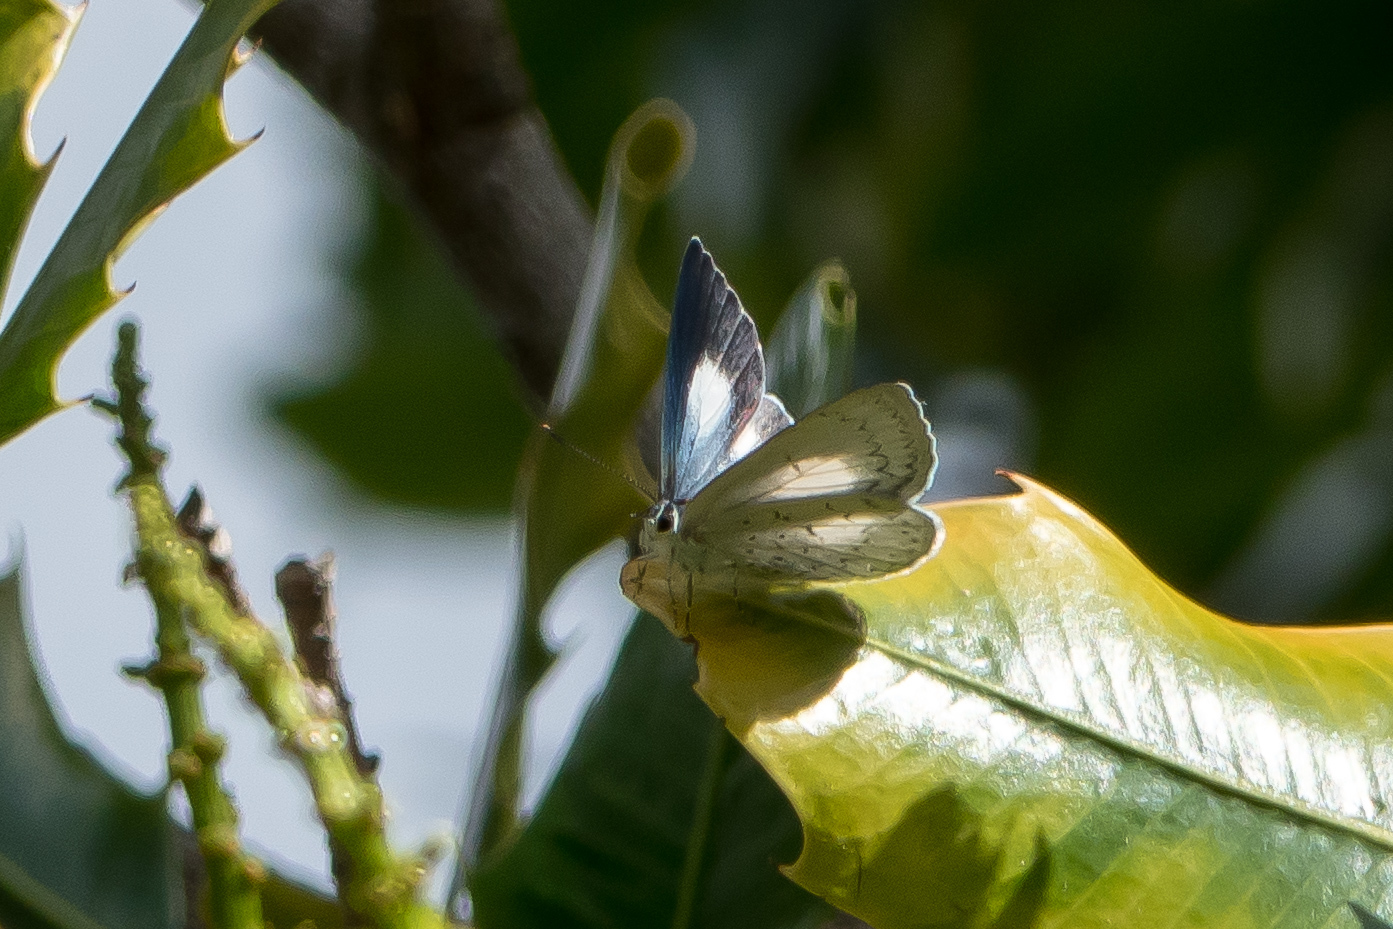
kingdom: Animalia
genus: Eirmocides
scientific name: Eirmocides
